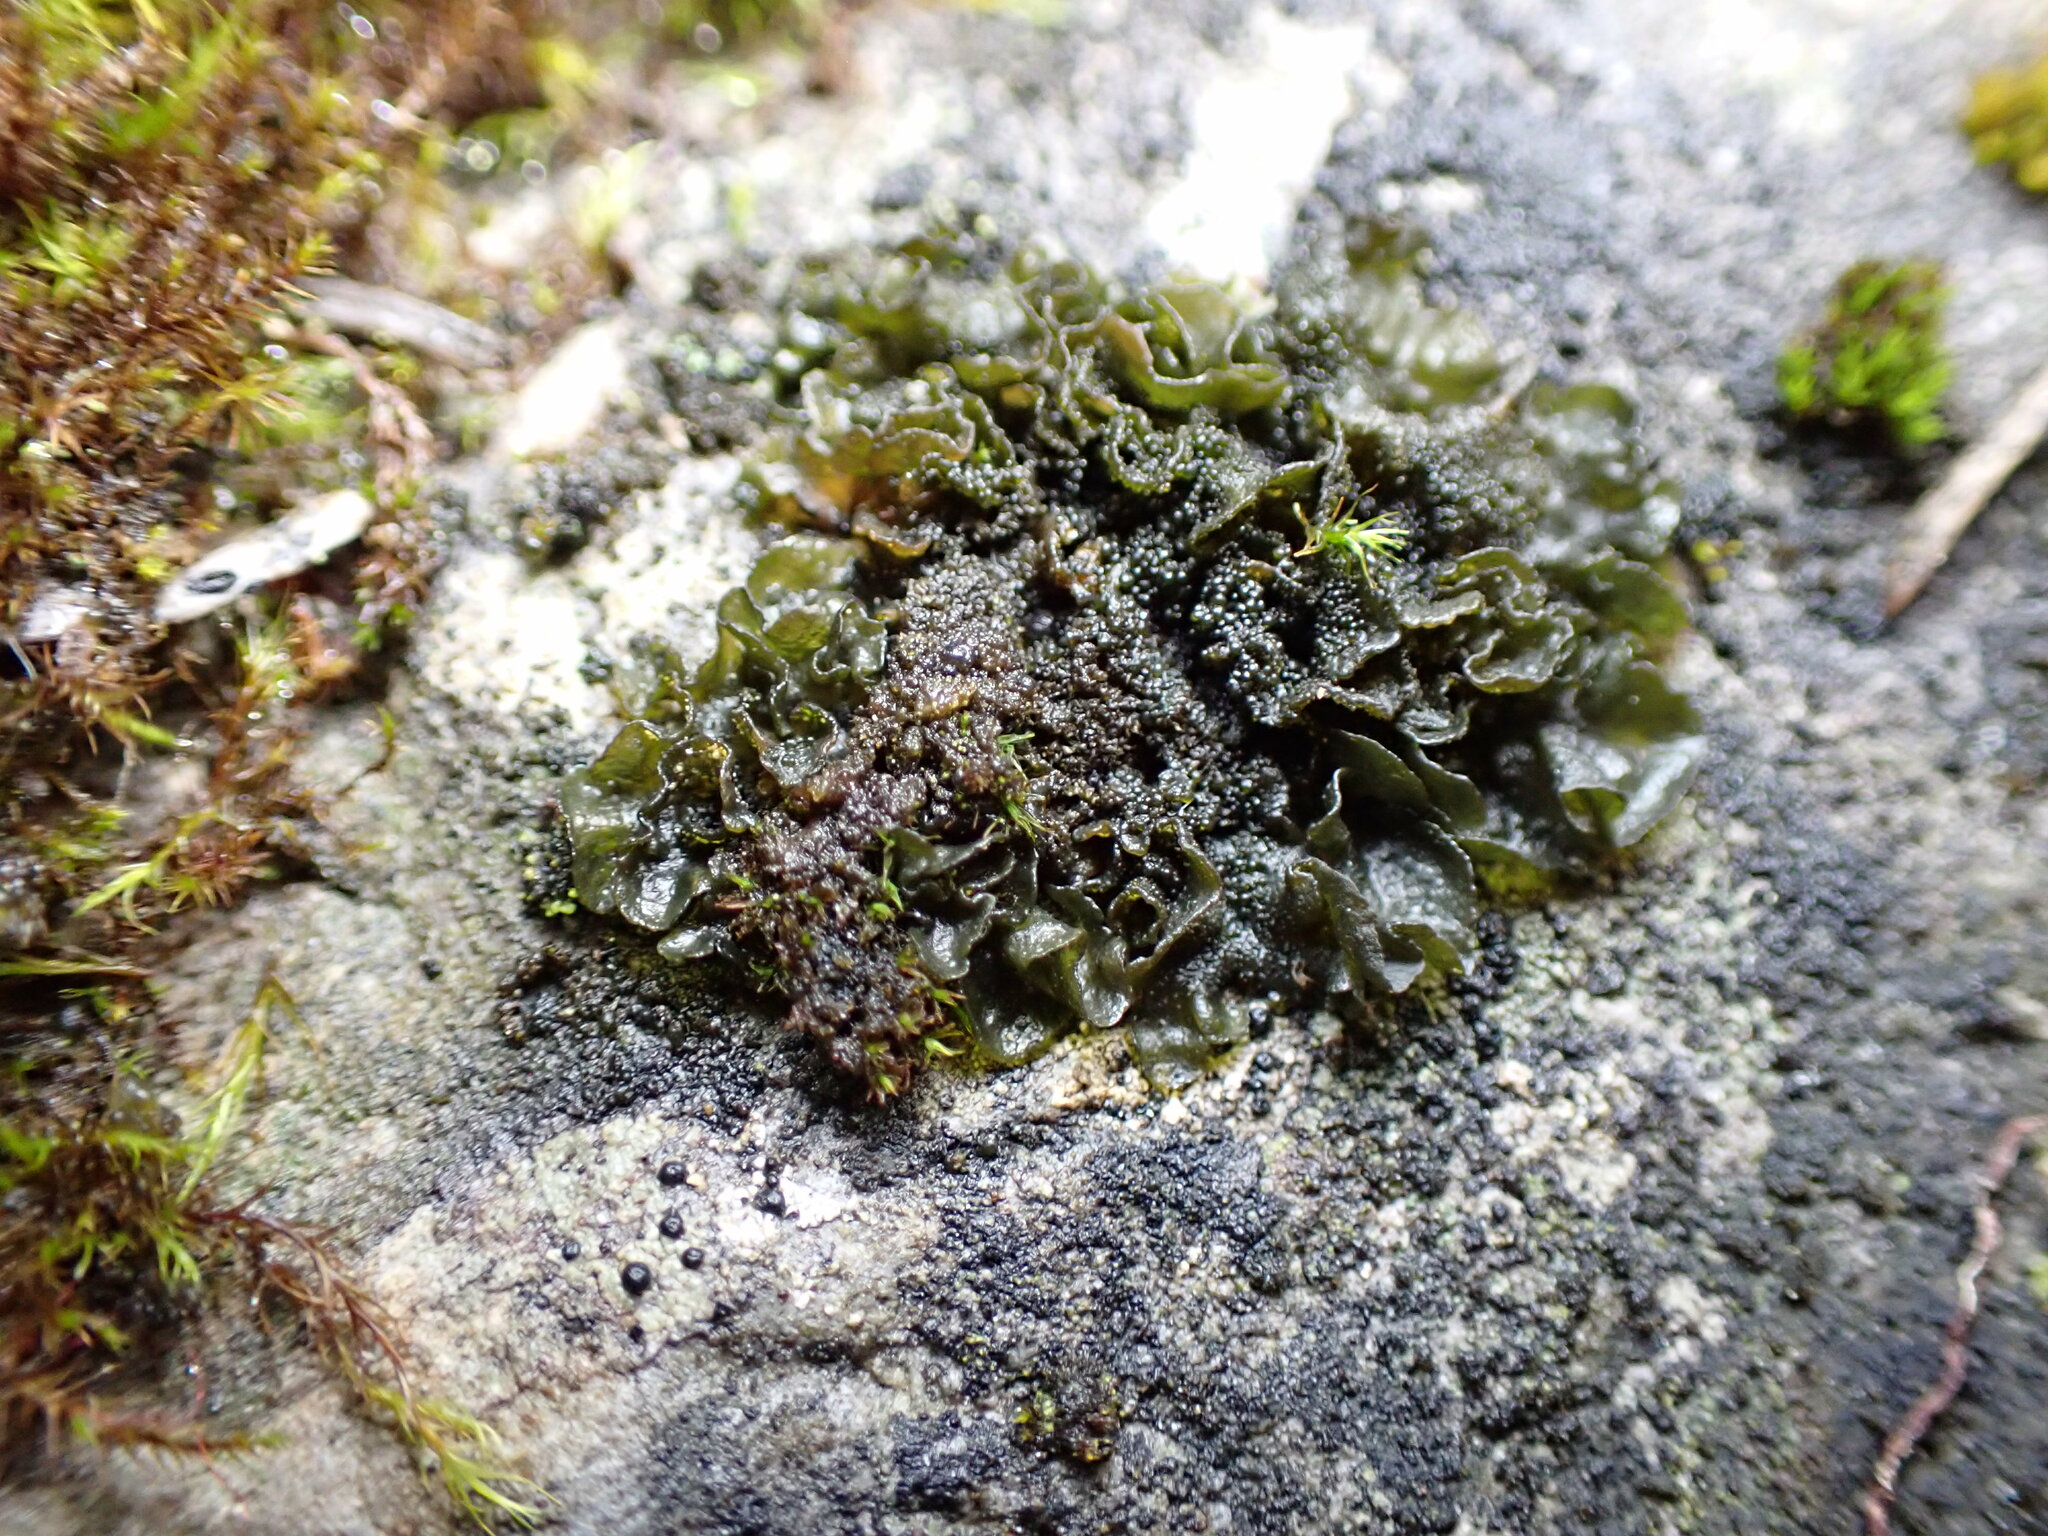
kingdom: Fungi
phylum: Ascomycota
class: Lecanoromycetes
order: Peltigerales
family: Collemataceae
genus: Lathagrium
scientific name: Lathagrium fuscovirens
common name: Crumpled rock tarpaper lichen
